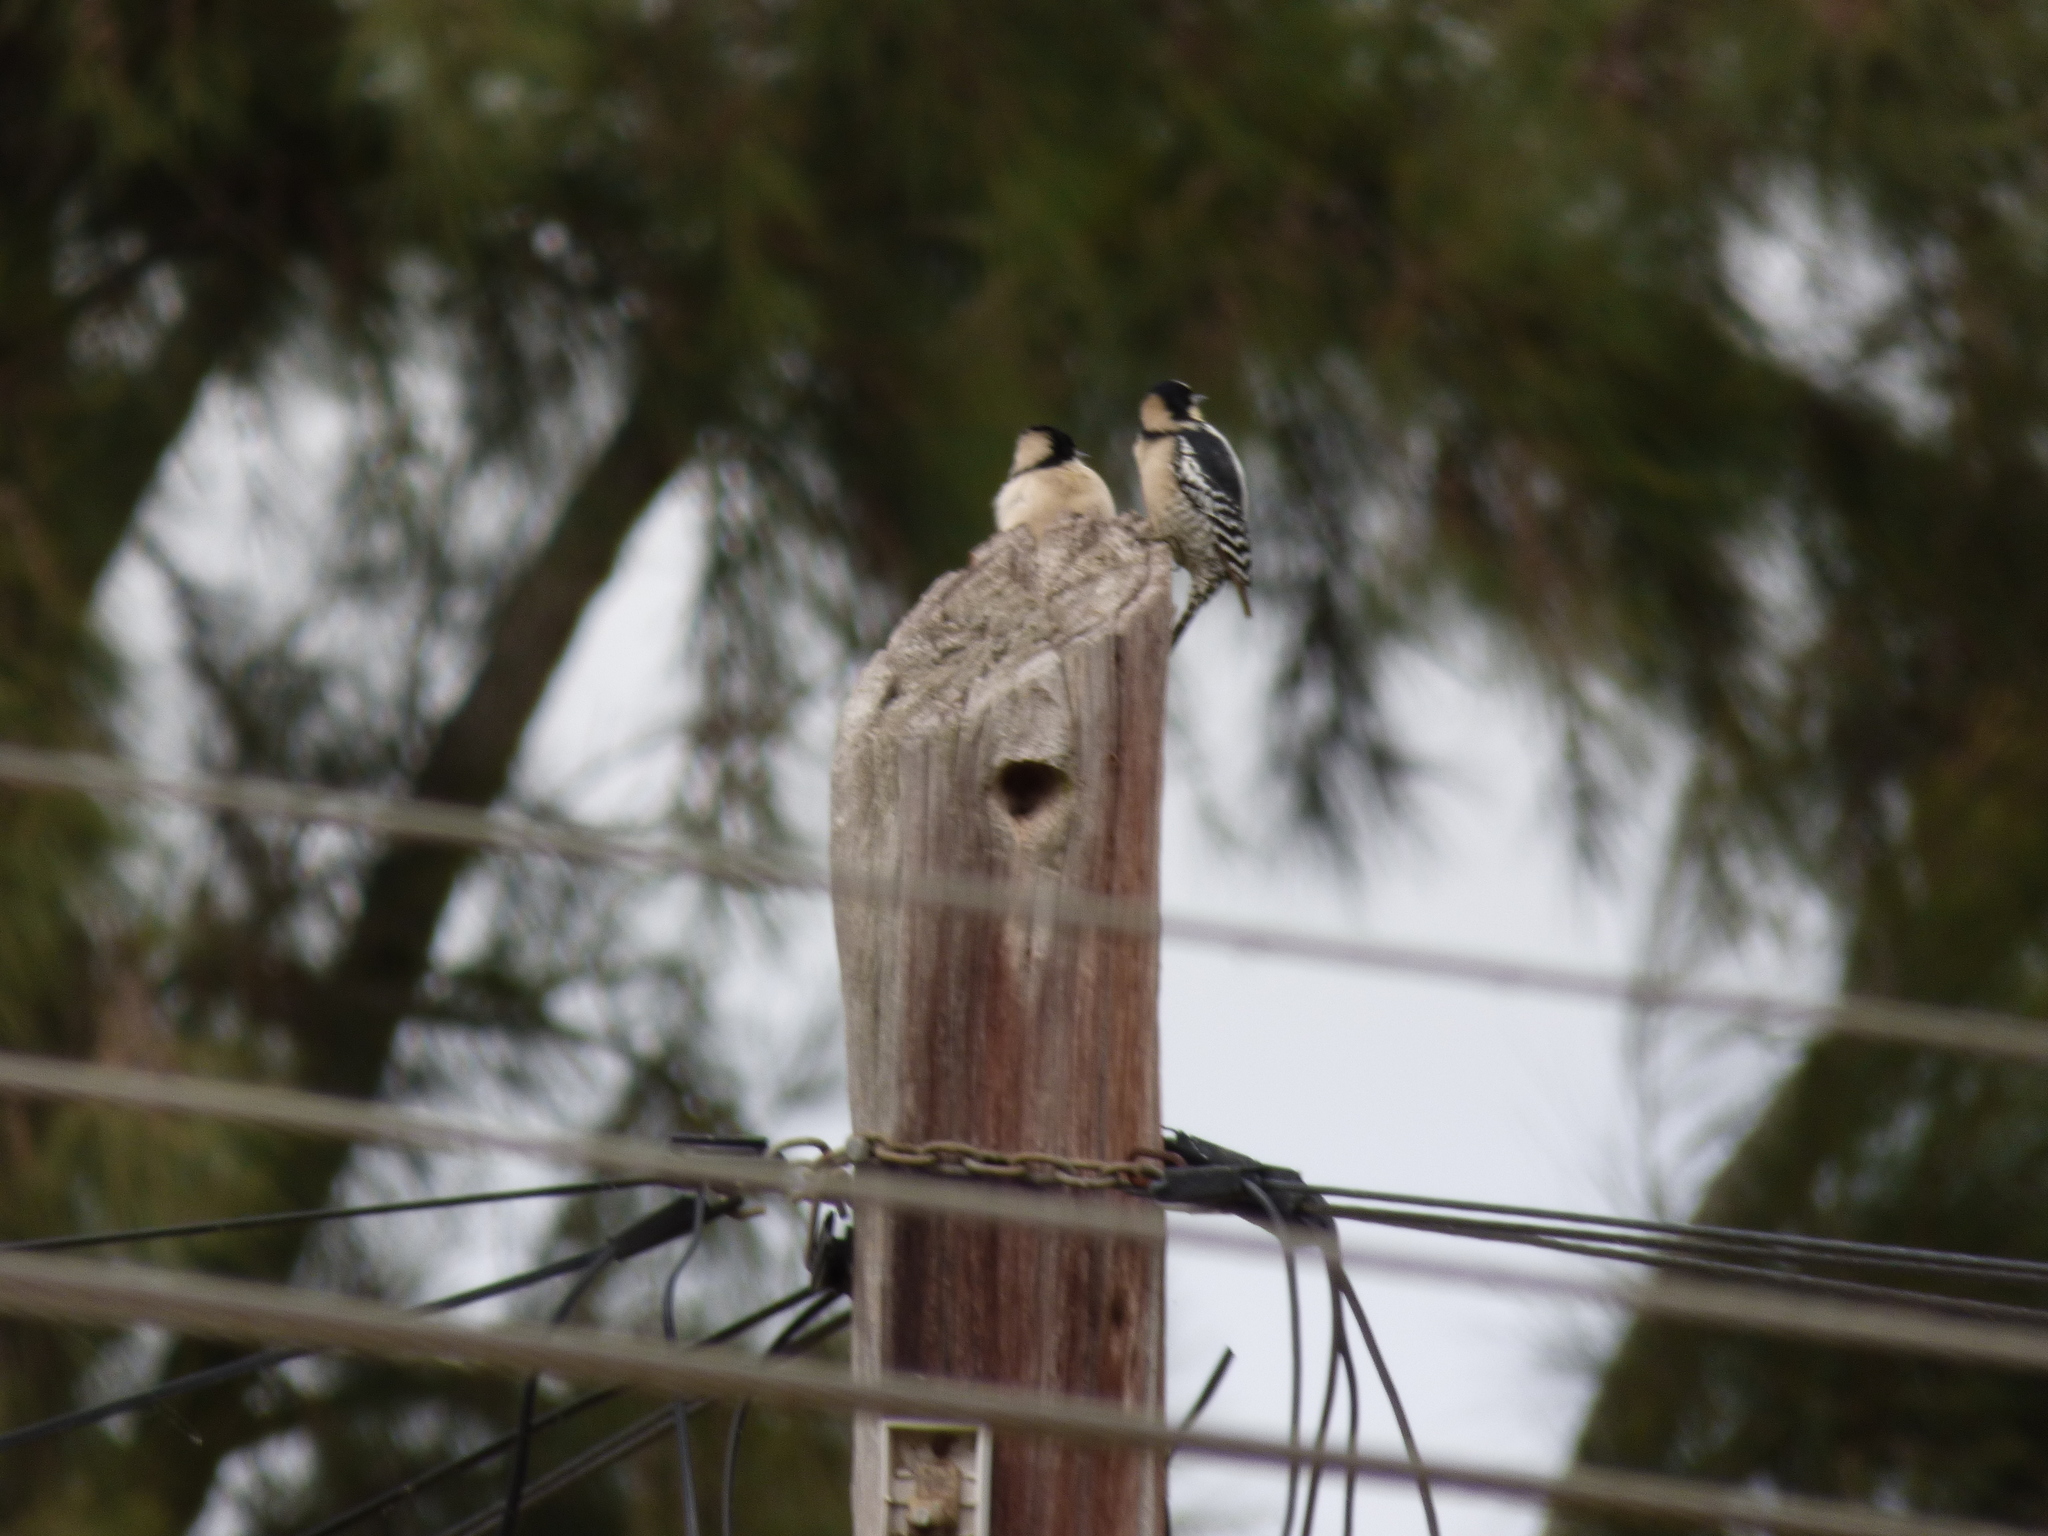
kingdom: Animalia
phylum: Chordata
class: Aves
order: Piciformes
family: Picidae
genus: Melanerpes
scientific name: Melanerpes cactorum
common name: White-fronted woodpecker
